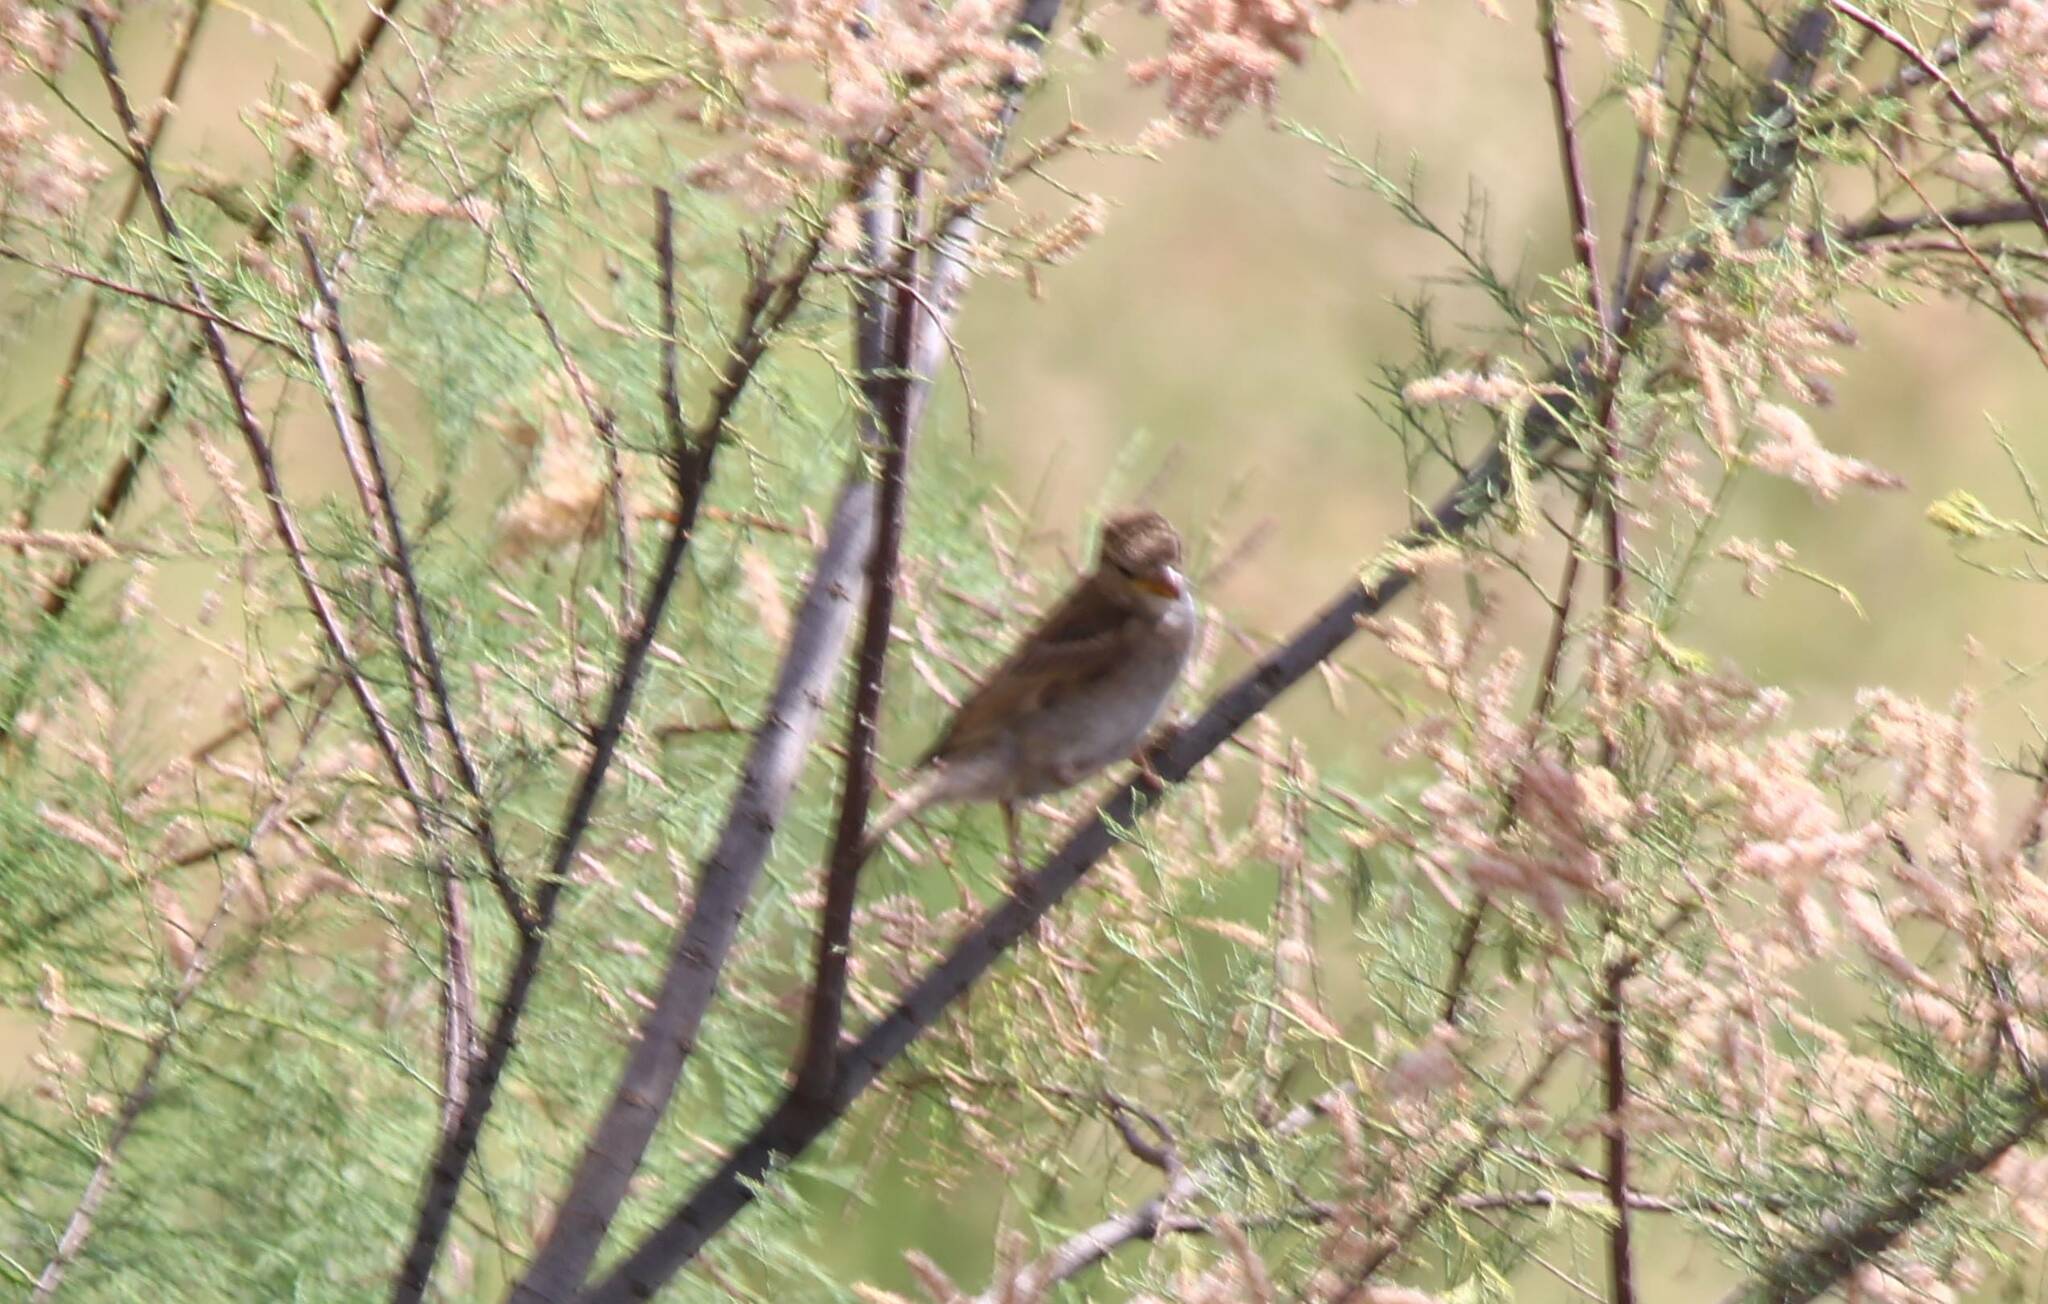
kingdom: Animalia
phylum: Chordata
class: Aves
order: Passeriformes
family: Passeridae
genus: Passer
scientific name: Passer domesticus
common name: House sparrow
